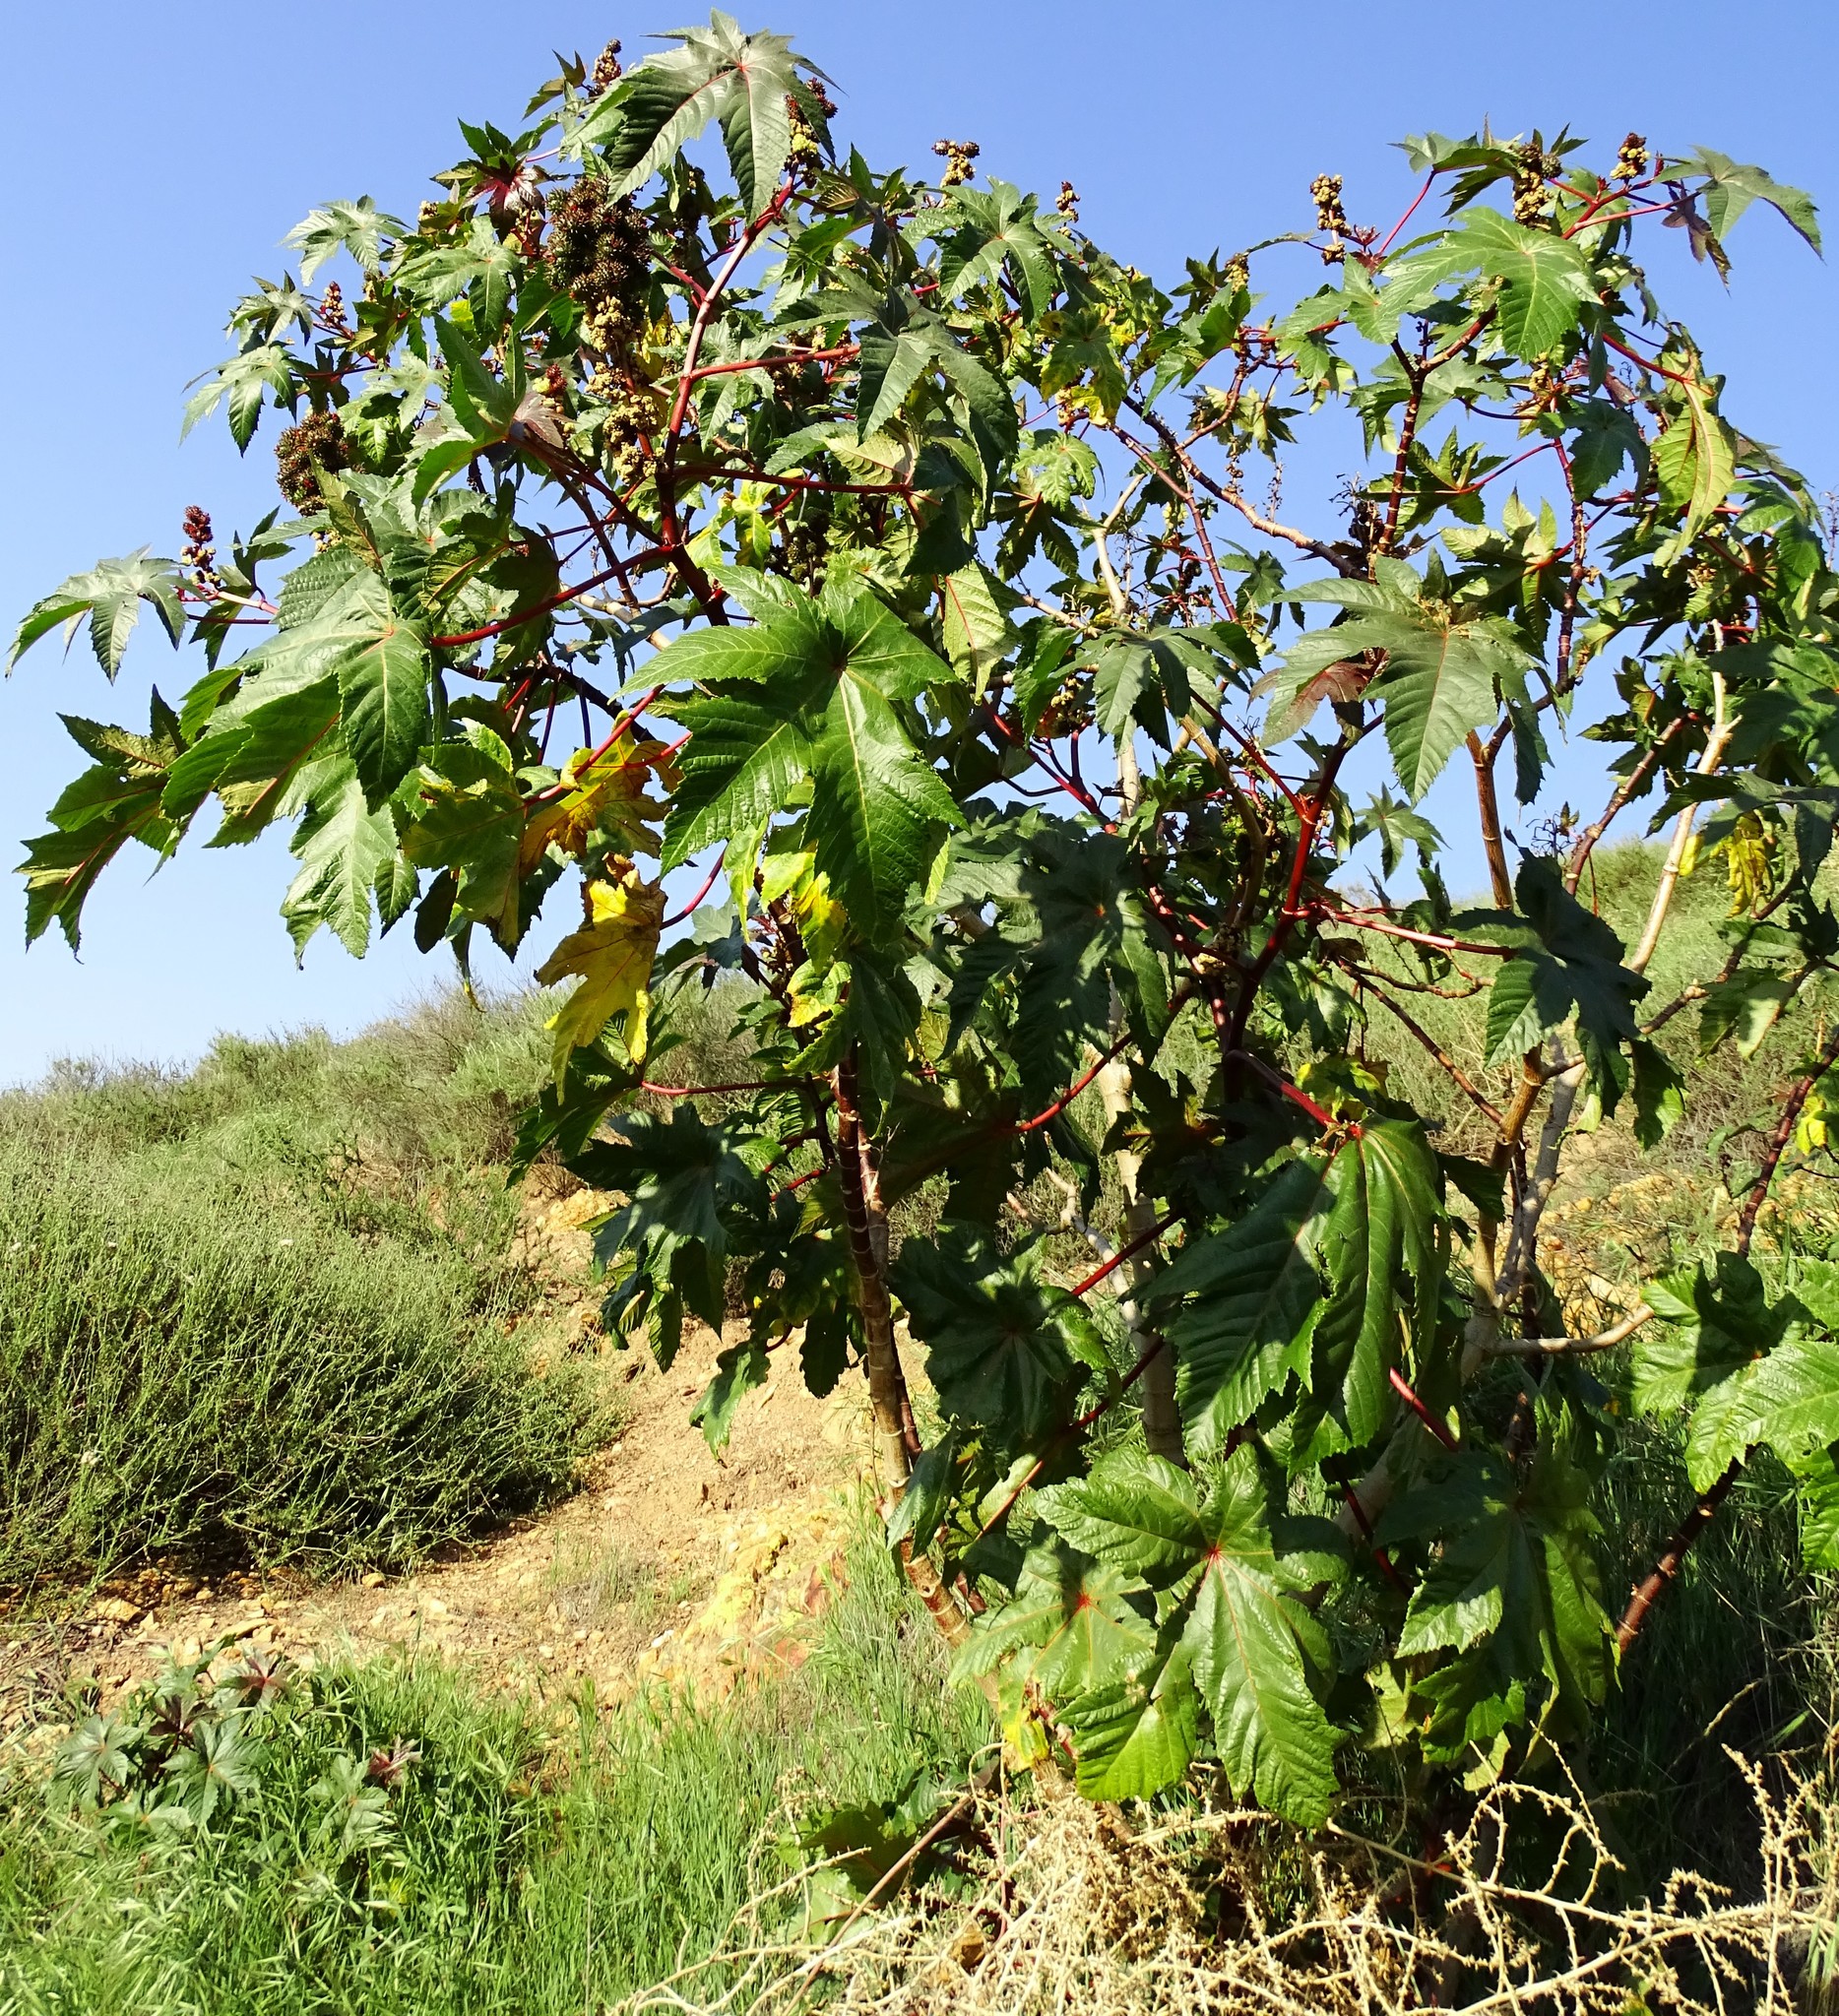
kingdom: Plantae
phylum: Tracheophyta
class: Magnoliopsida
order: Malpighiales
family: Euphorbiaceae
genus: Ricinus
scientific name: Ricinus communis
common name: Castor-oil-plant
